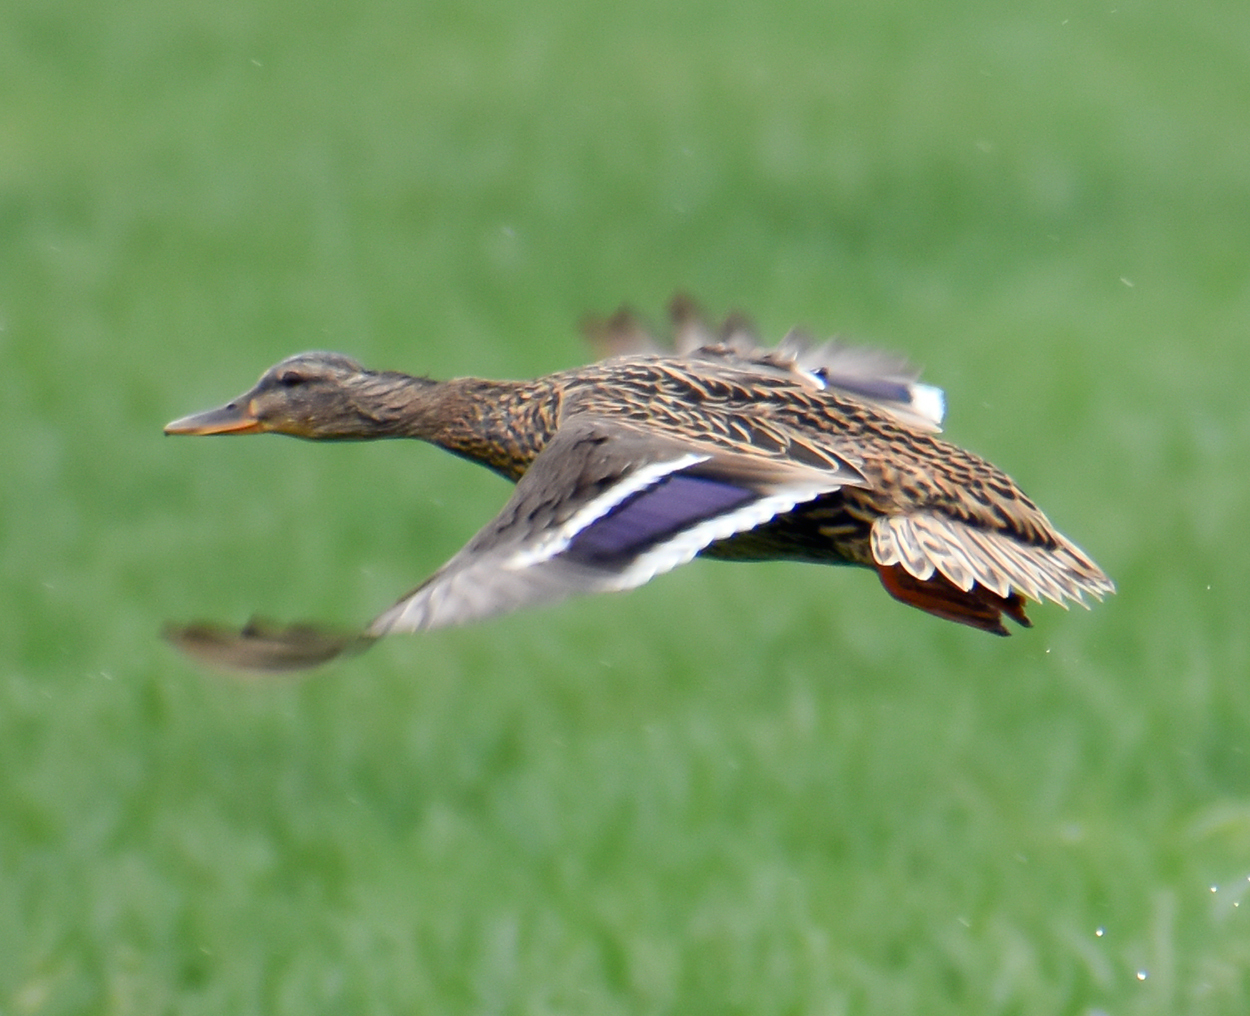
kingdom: Animalia
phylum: Chordata
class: Aves
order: Anseriformes
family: Anatidae
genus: Anas
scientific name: Anas platyrhynchos
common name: Mallard
